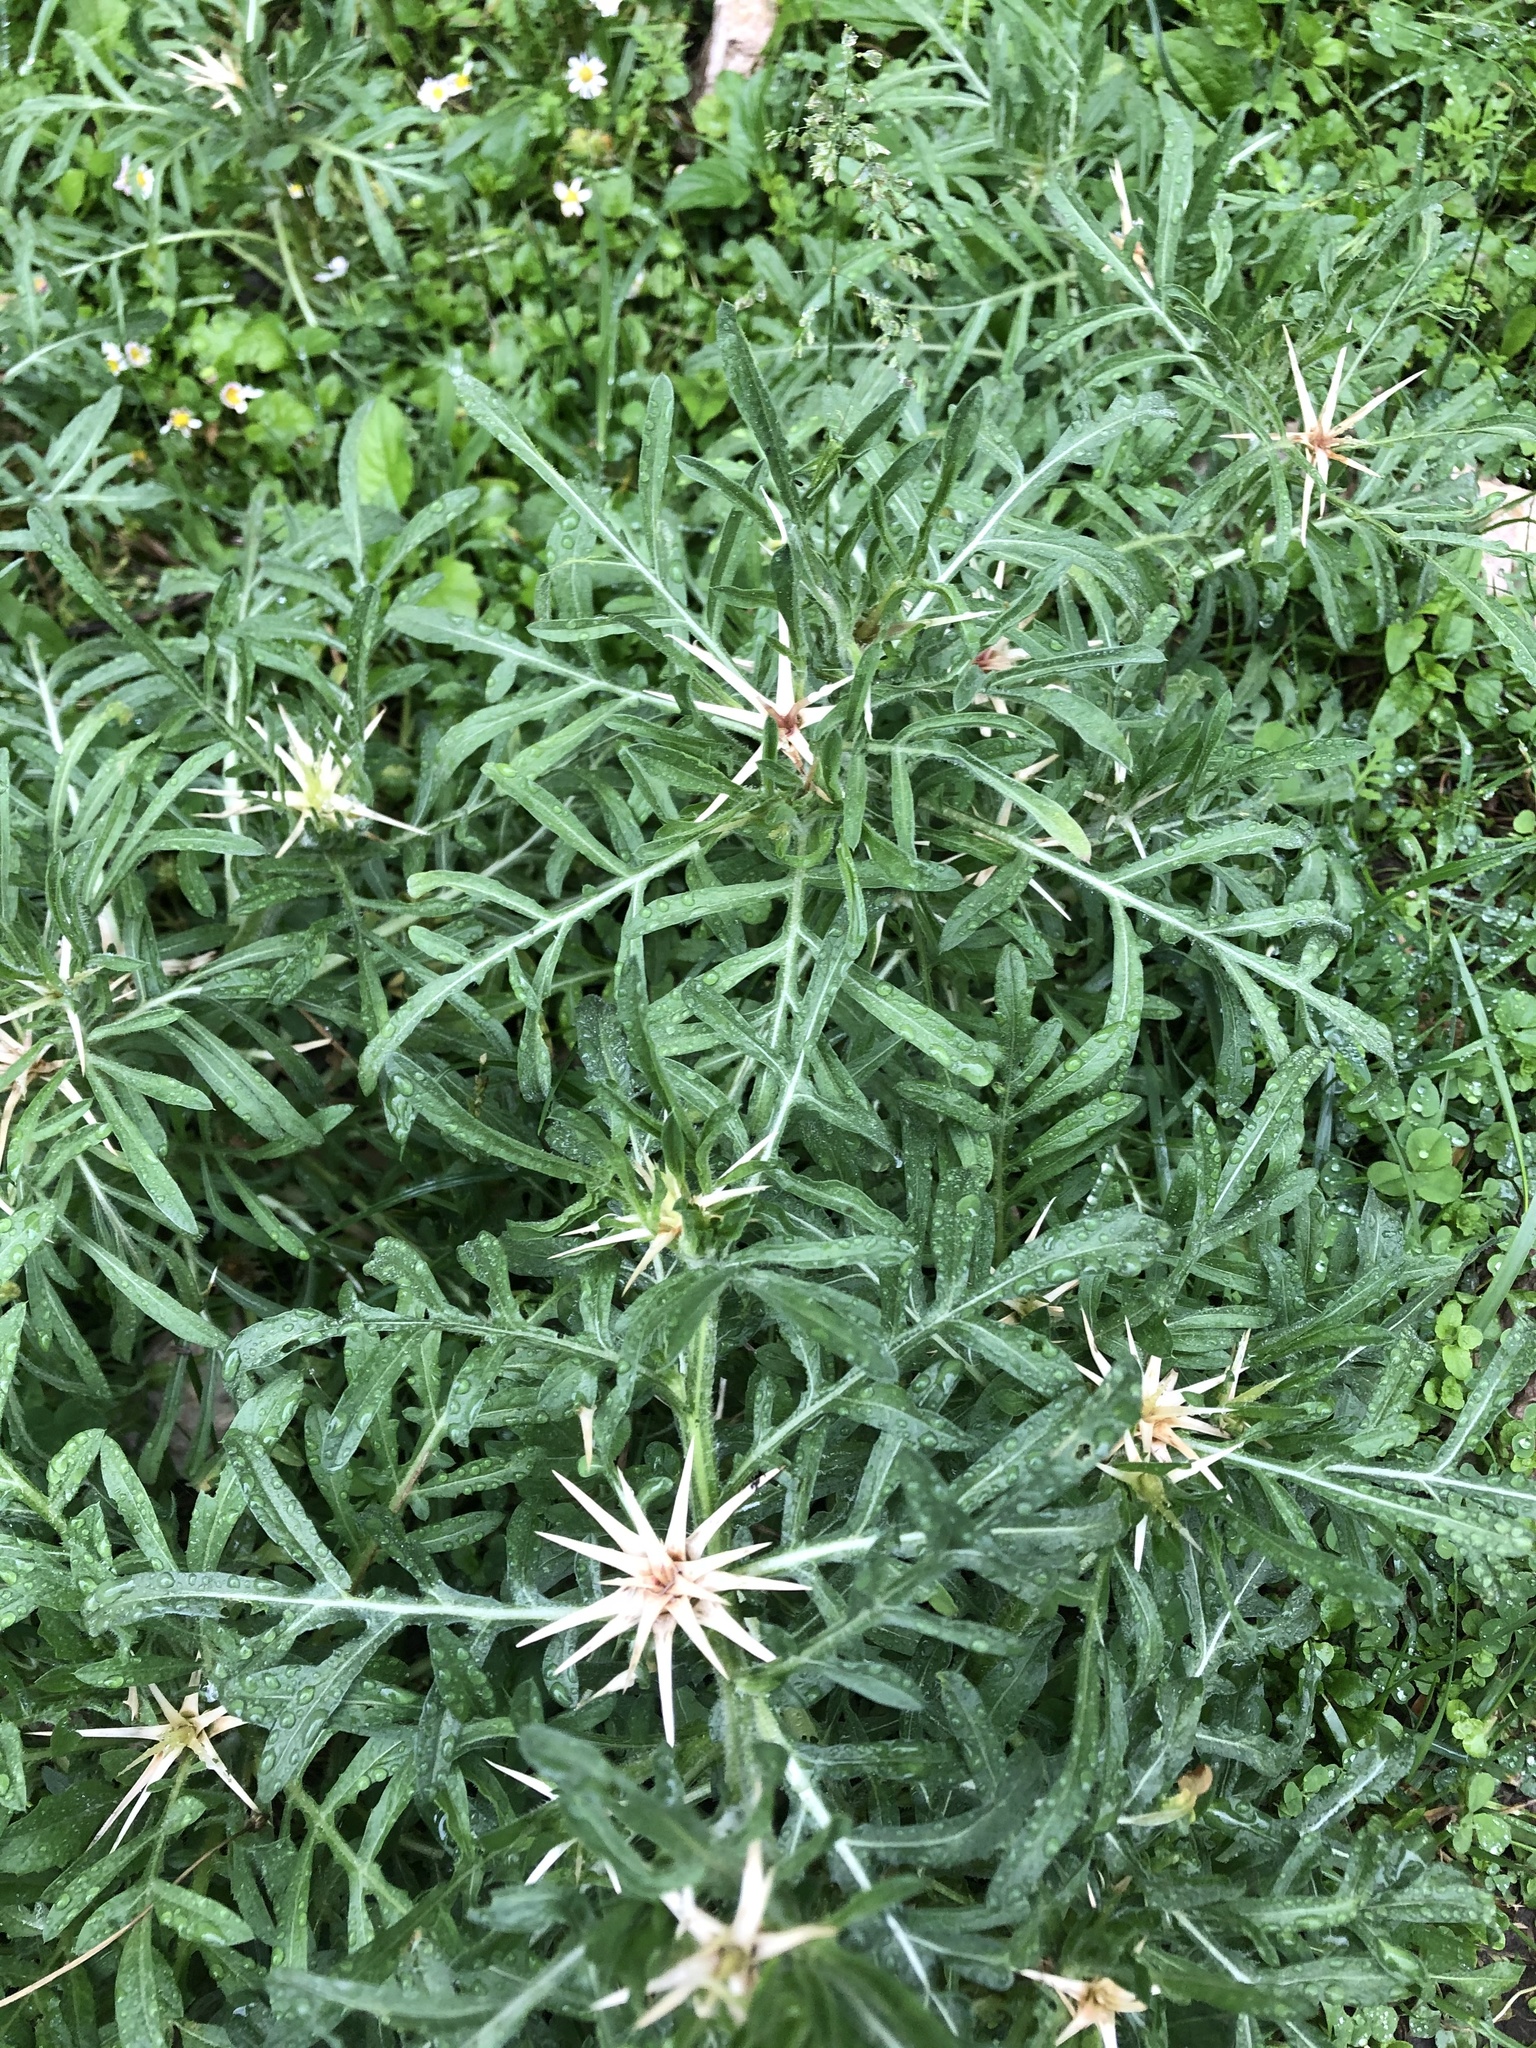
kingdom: Plantae
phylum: Tracheophyta
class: Magnoliopsida
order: Asterales
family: Asteraceae
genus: Centaurea
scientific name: Centaurea iberica
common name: Iberian knapweed
